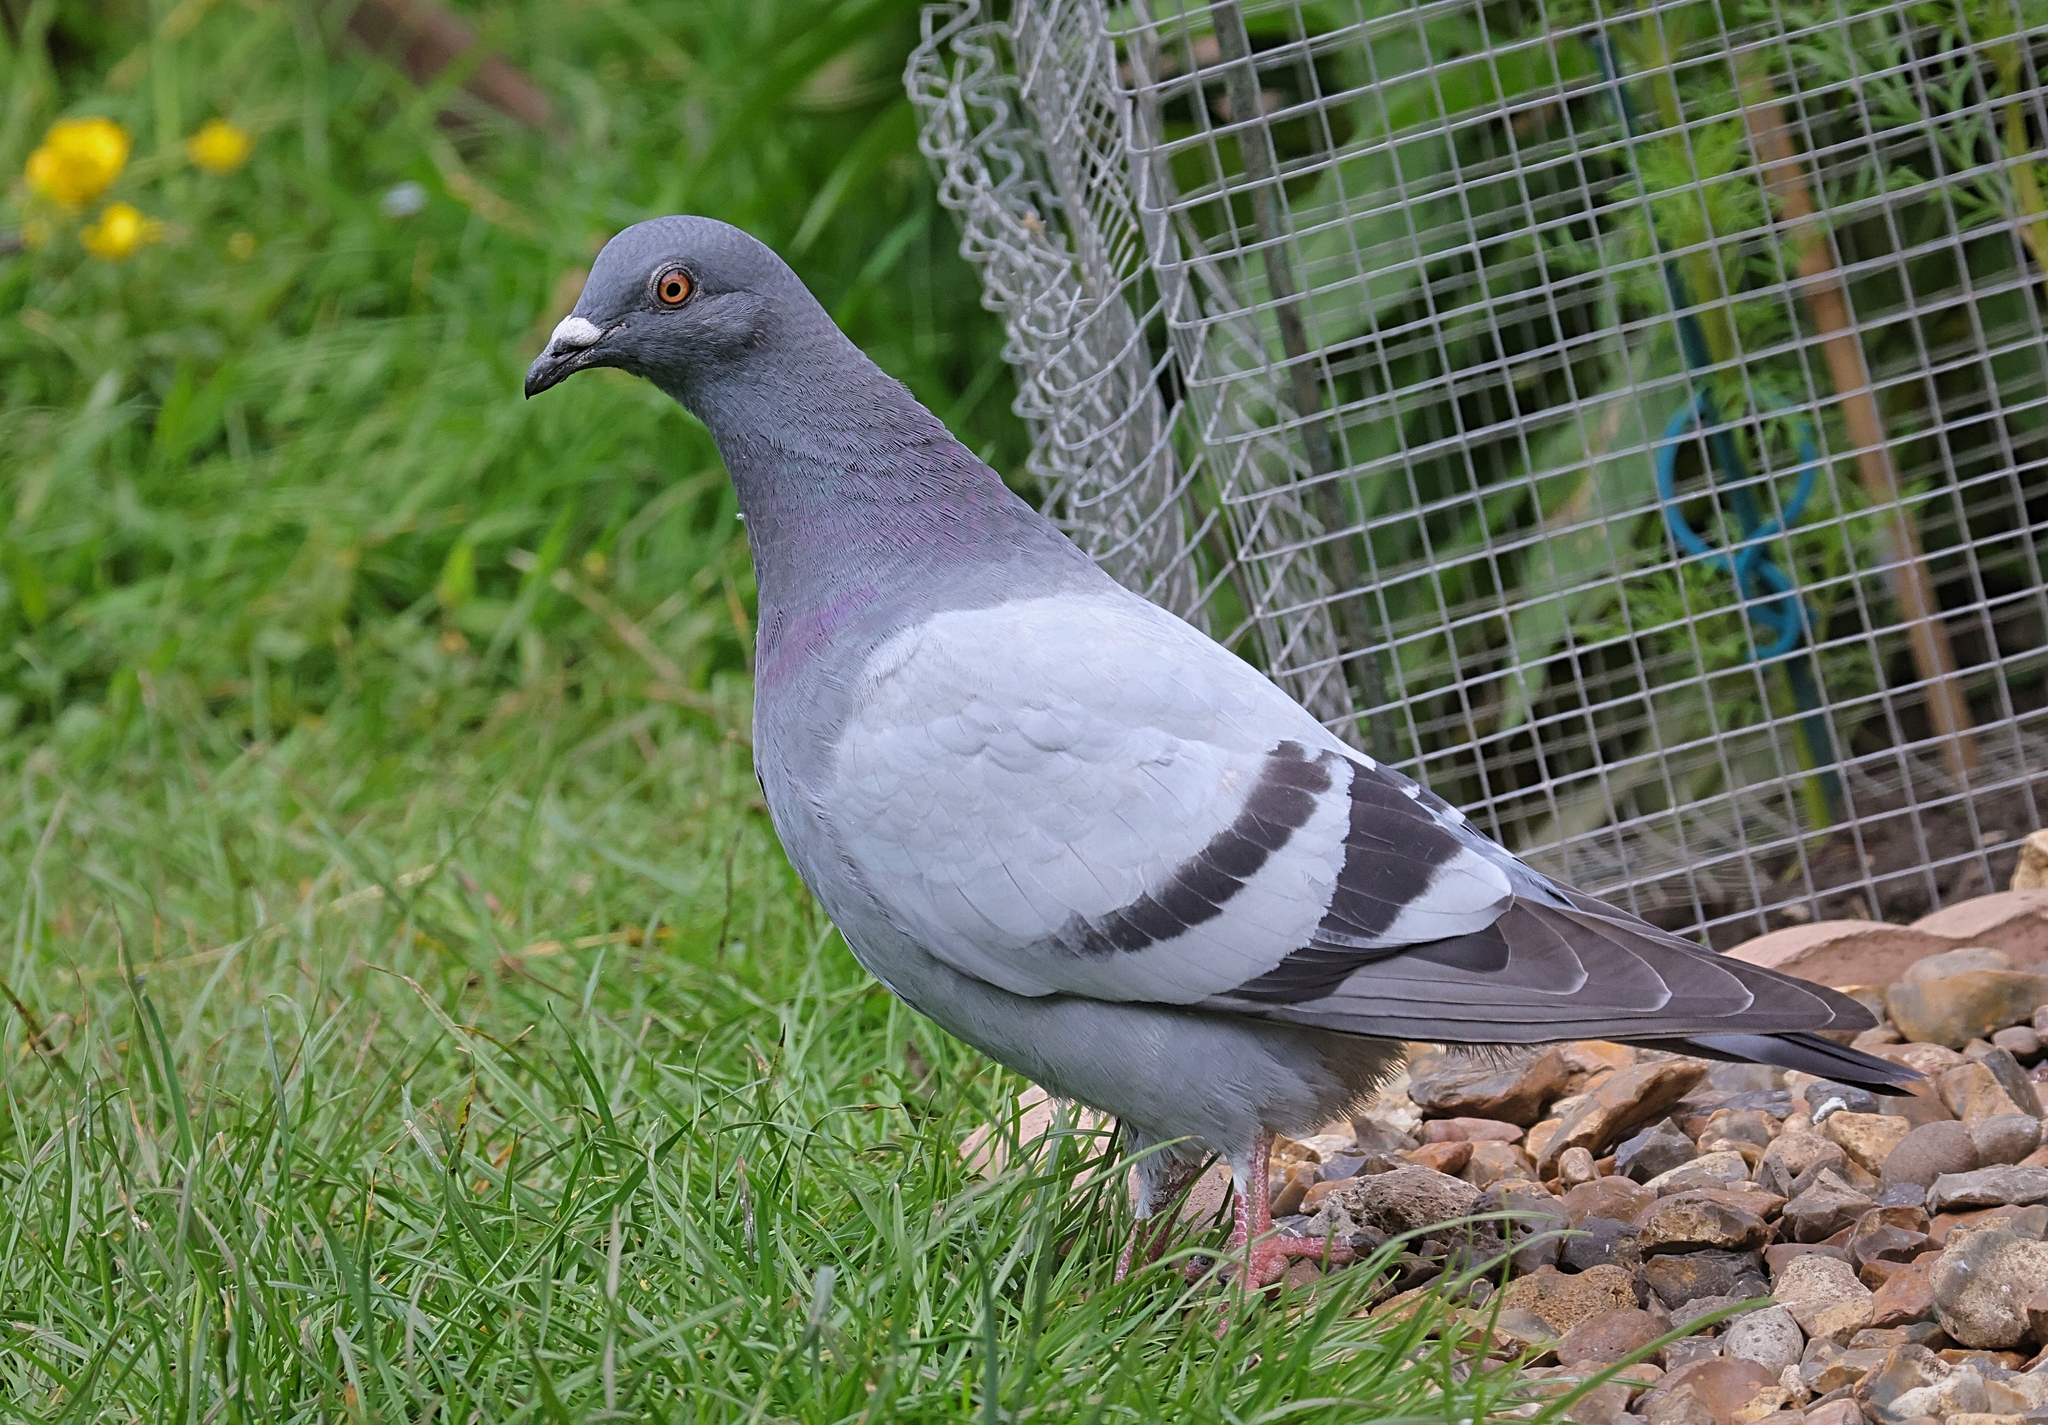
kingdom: Animalia
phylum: Chordata
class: Aves
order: Columbiformes
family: Columbidae
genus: Columba
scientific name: Columba livia
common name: Rock pigeon
